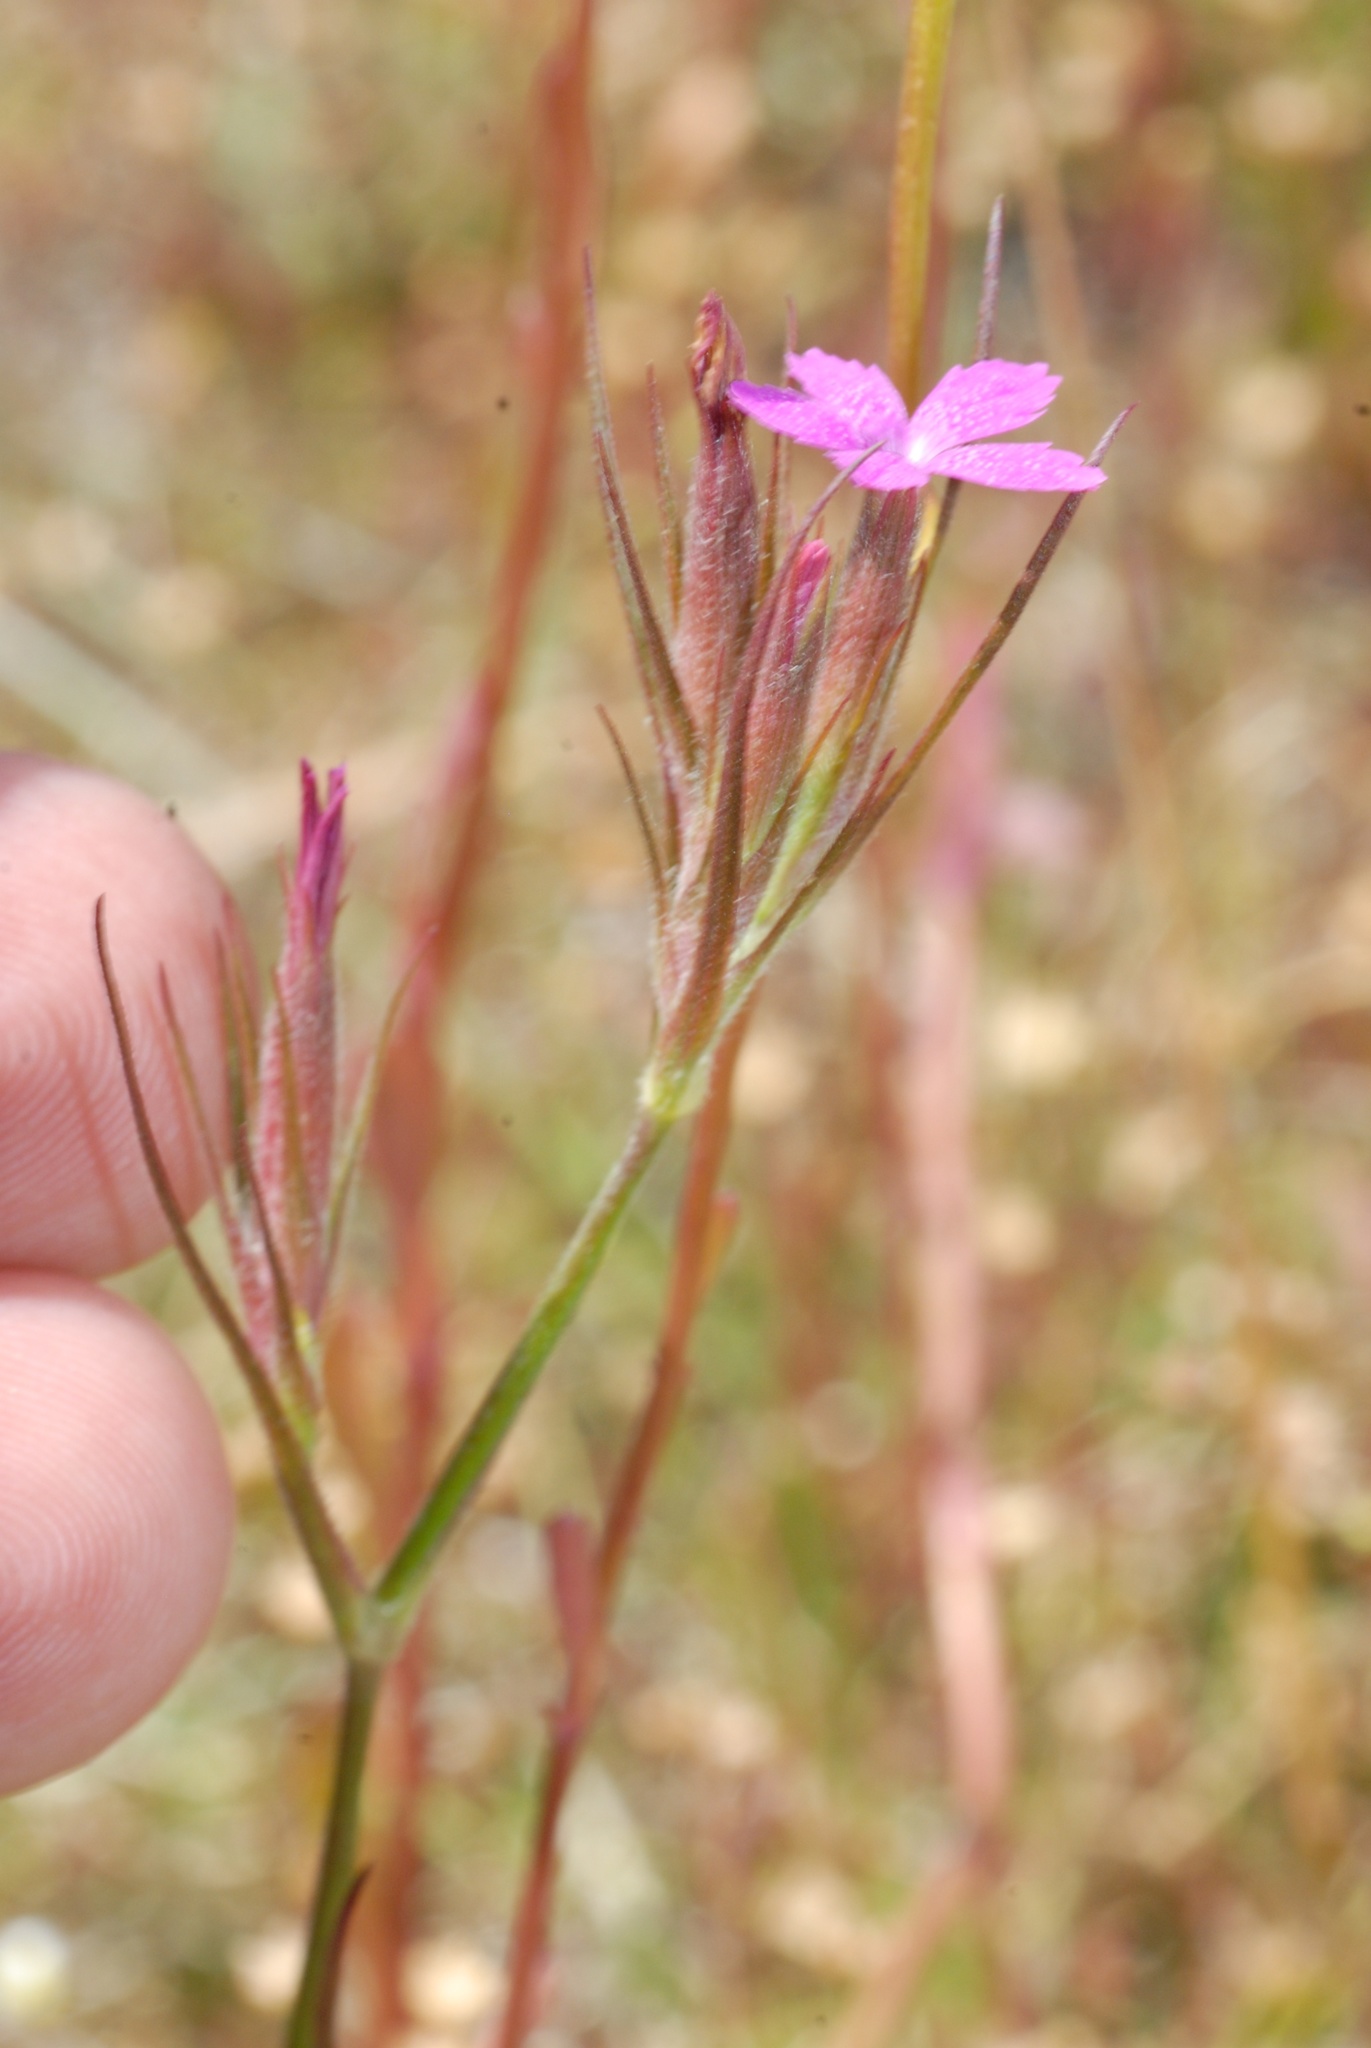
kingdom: Plantae
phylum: Tracheophyta
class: Magnoliopsida
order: Caryophyllales
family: Caryophyllaceae
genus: Dianthus
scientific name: Dianthus armeria
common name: Deptford pink
